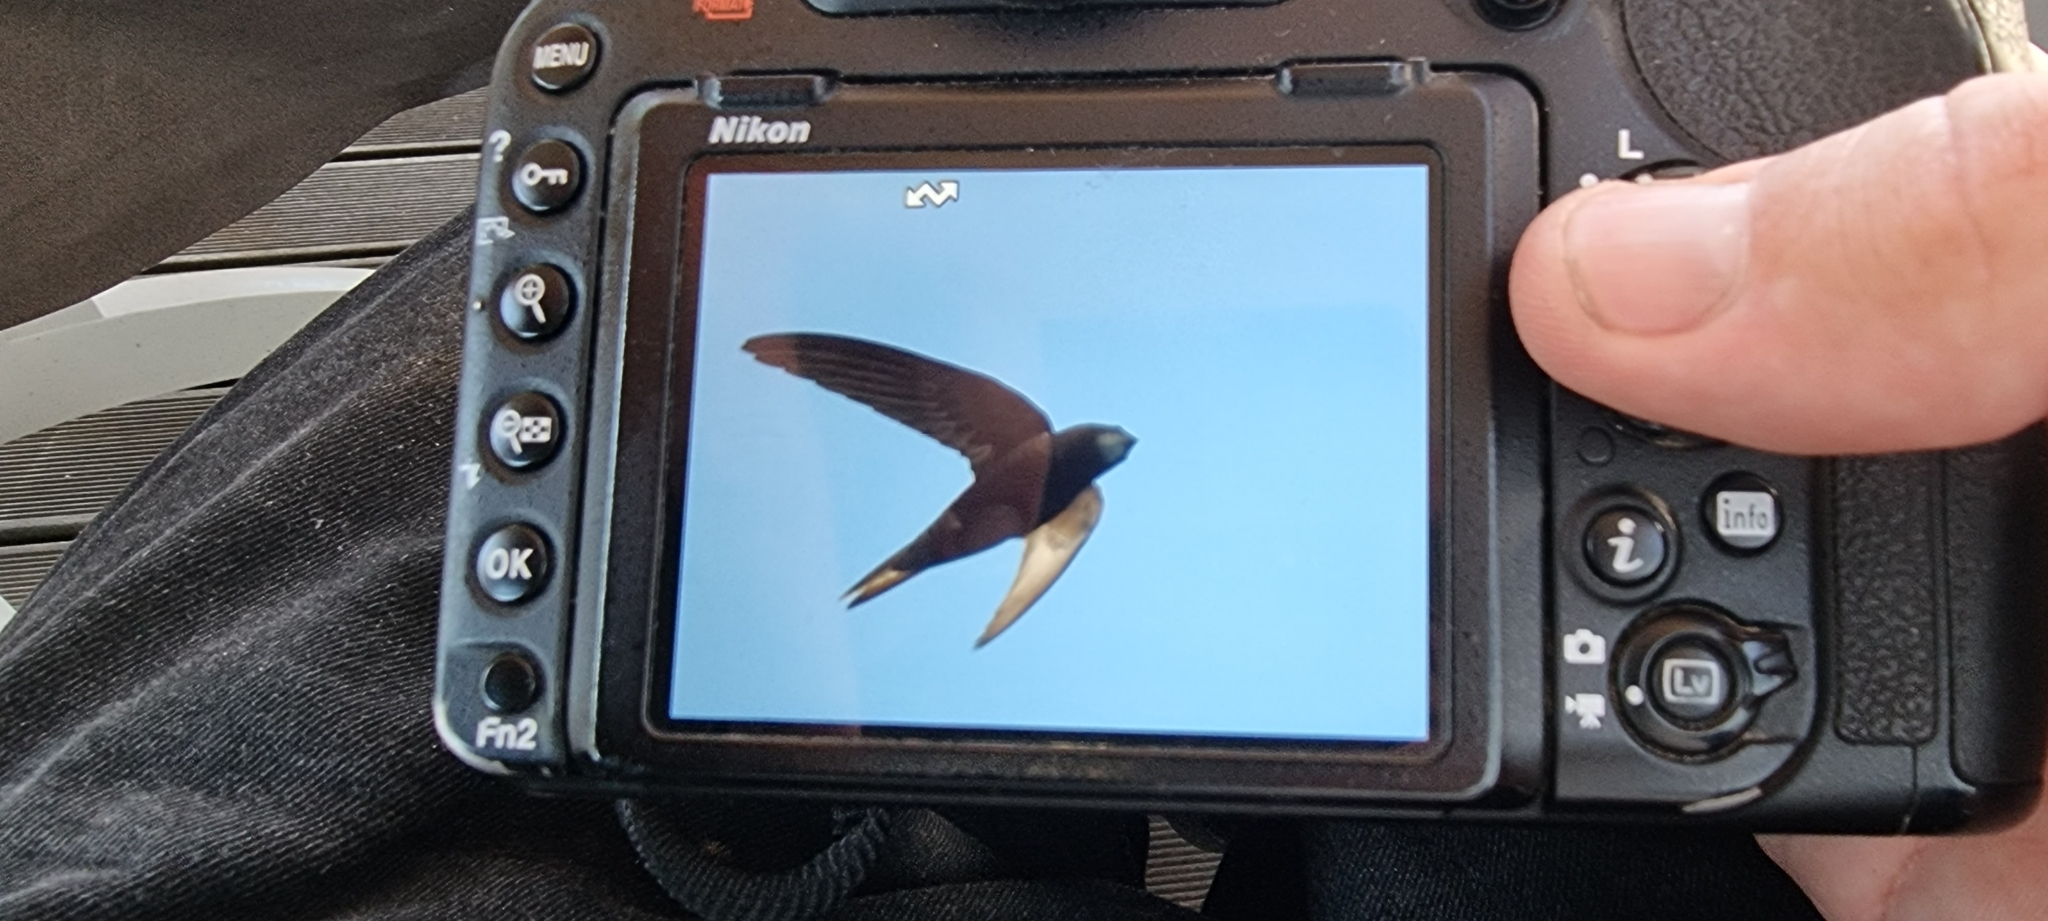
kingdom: Animalia
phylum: Chordata
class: Aves
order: Apodiformes
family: Apodidae
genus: Apus
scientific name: Apus apus
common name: Common swift
